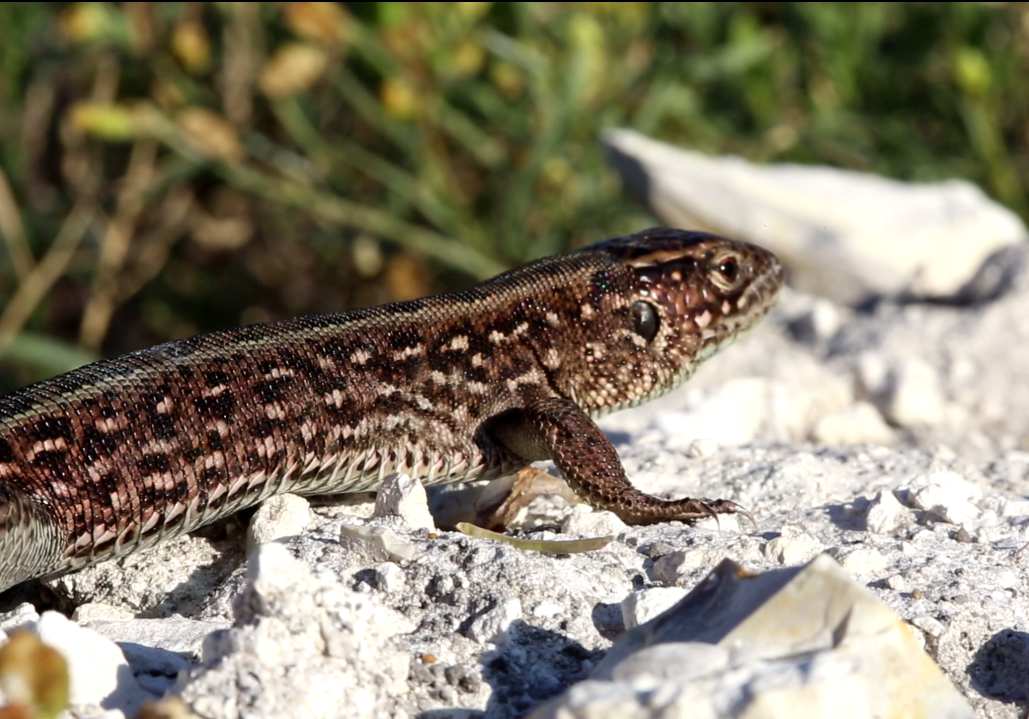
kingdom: Animalia
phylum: Chordata
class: Squamata
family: Lacertidae
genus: Lacerta
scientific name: Lacerta agilis
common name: Sand lizard
